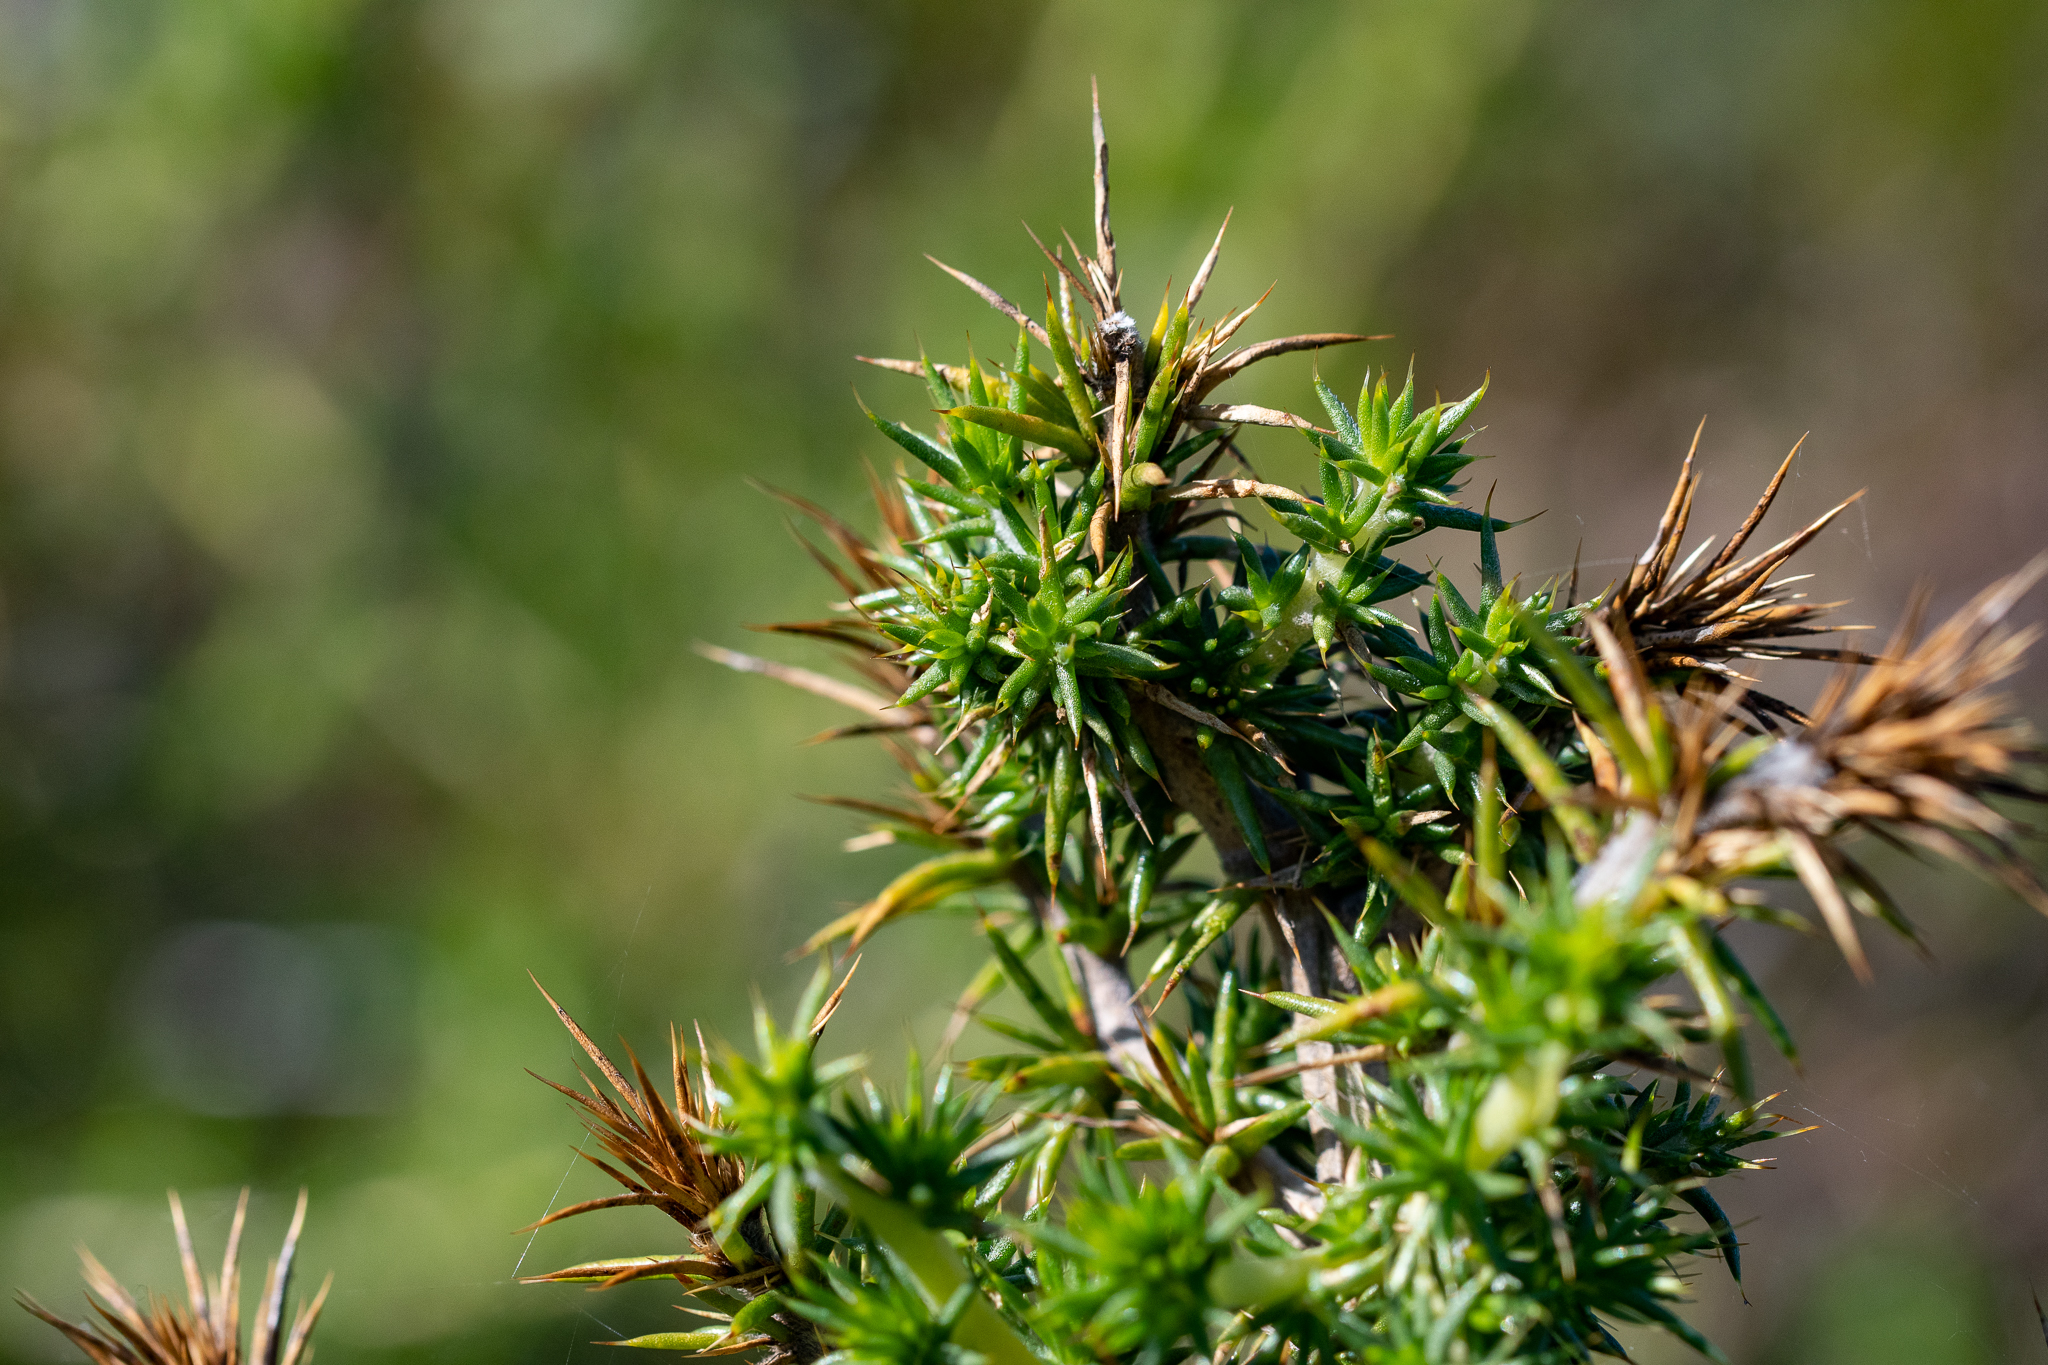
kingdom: Plantae
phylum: Tracheophyta
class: Magnoliopsida
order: Fabales
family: Fabaceae
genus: Aspalathus
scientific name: Aspalathus astroites
